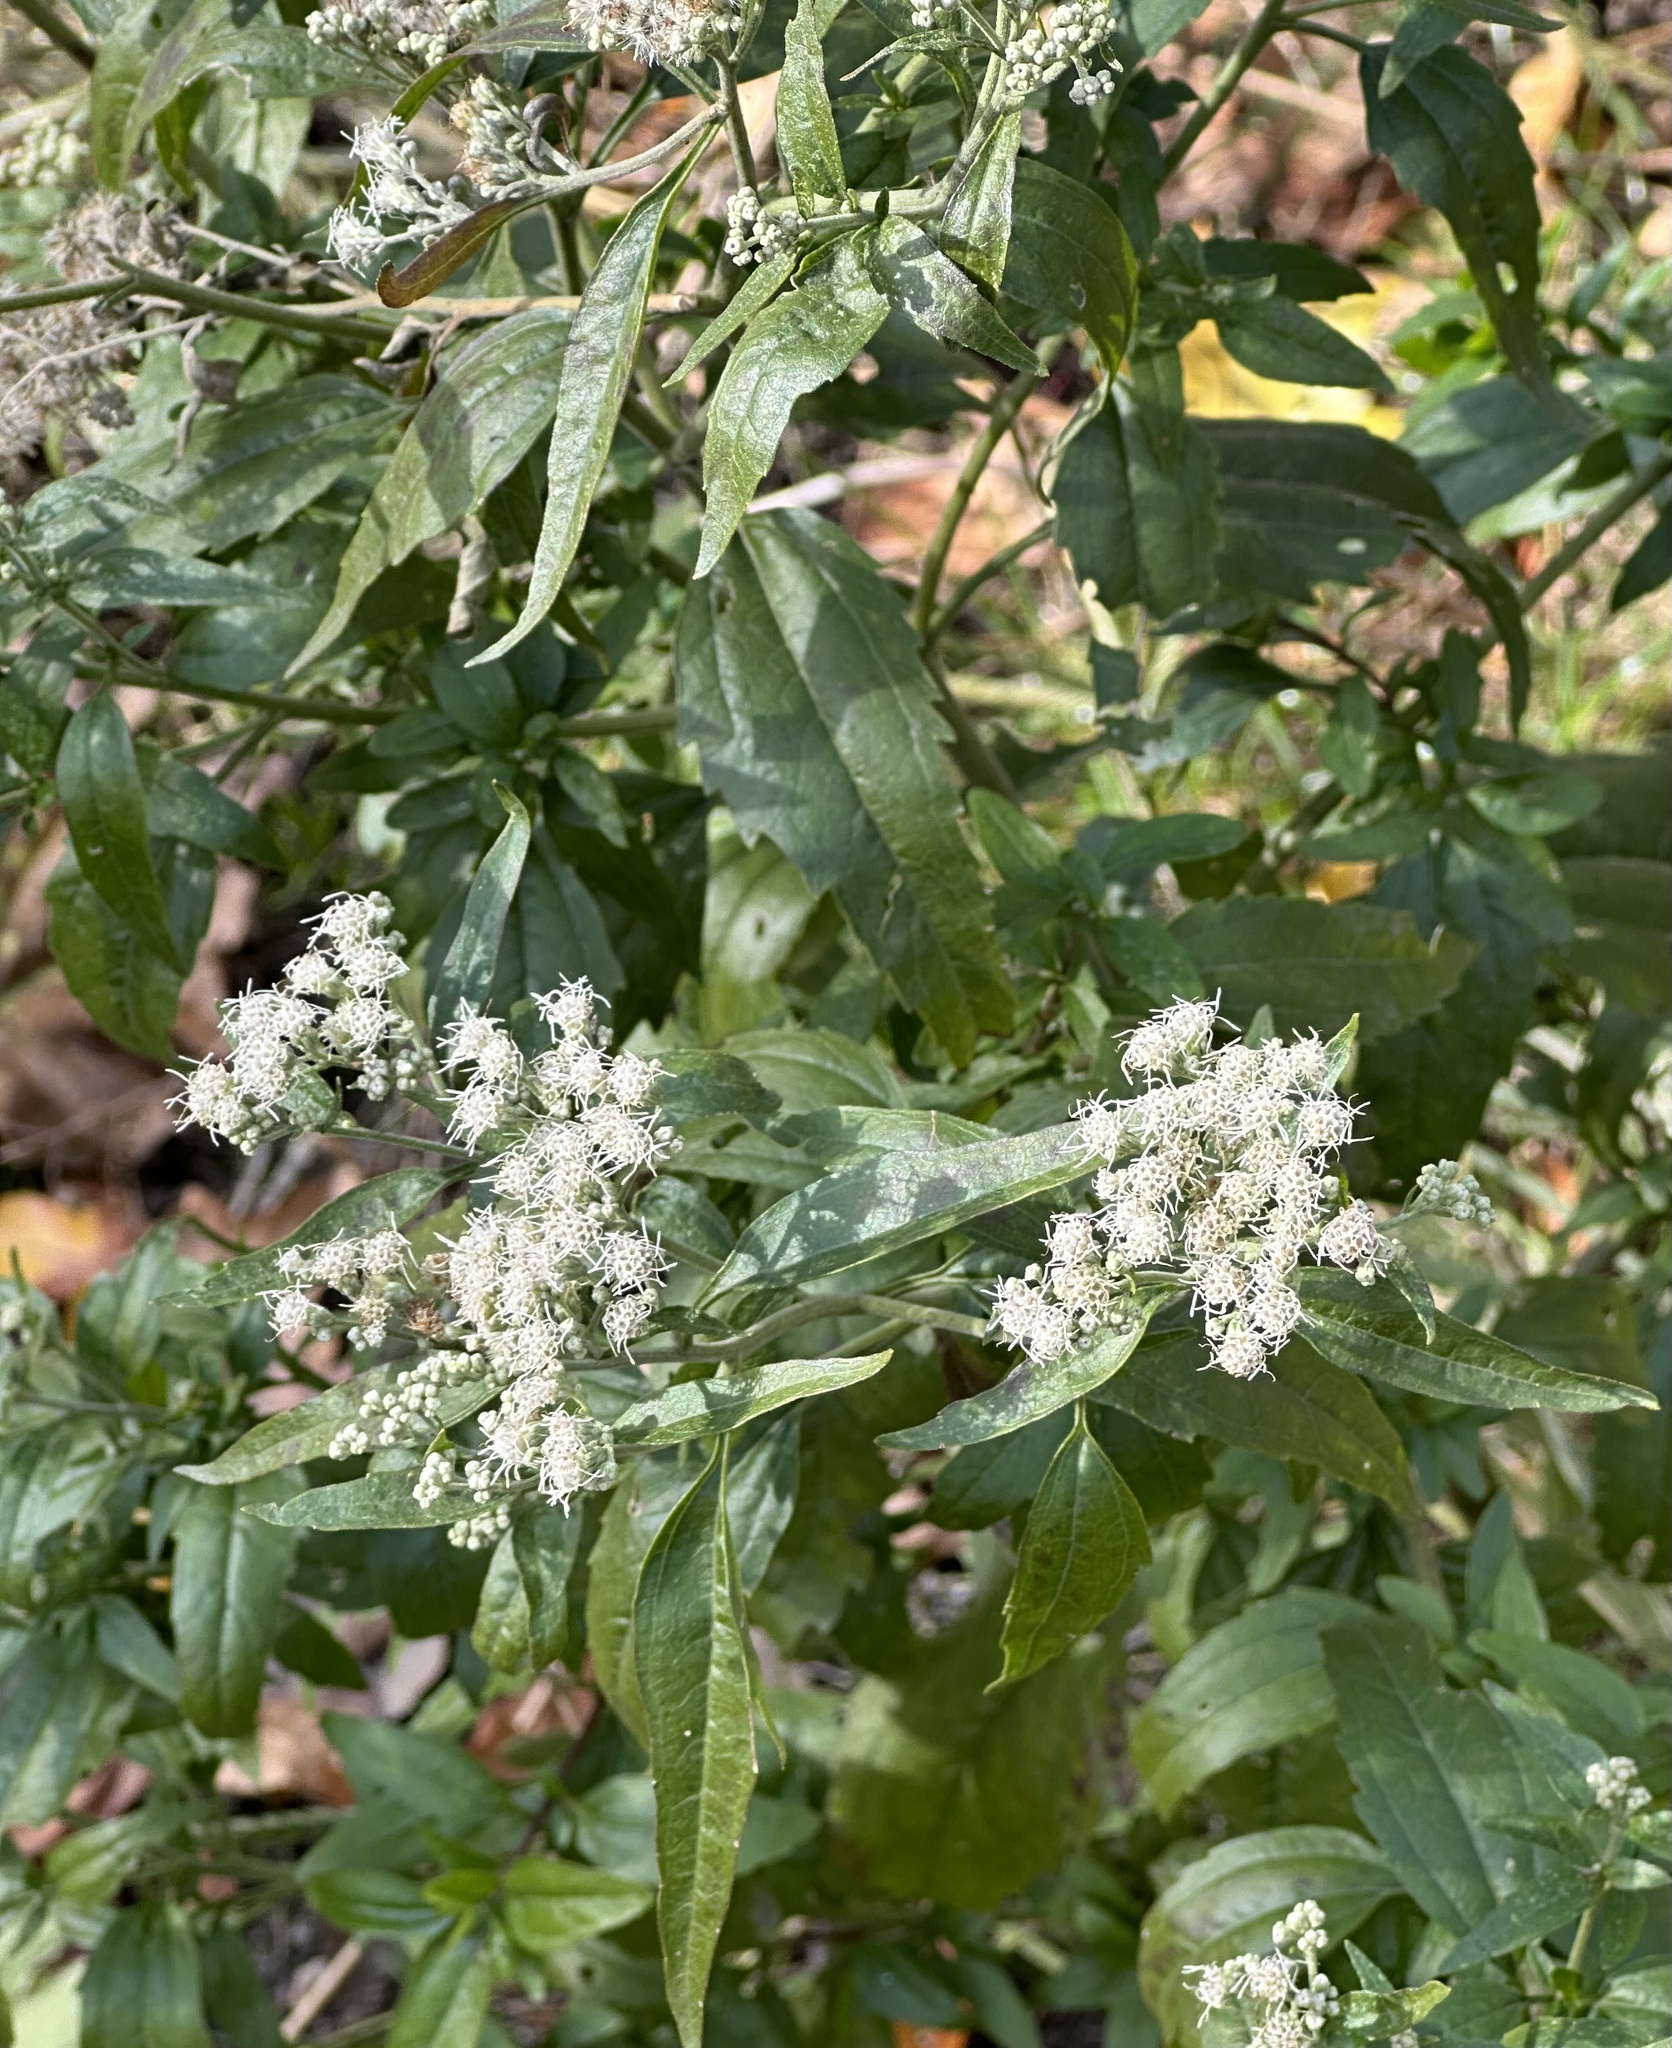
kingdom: Plantae
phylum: Tracheophyta
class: Magnoliopsida
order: Asterales
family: Asteraceae
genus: Eupatorium
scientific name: Eupatorium serotinum
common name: Late boneset
